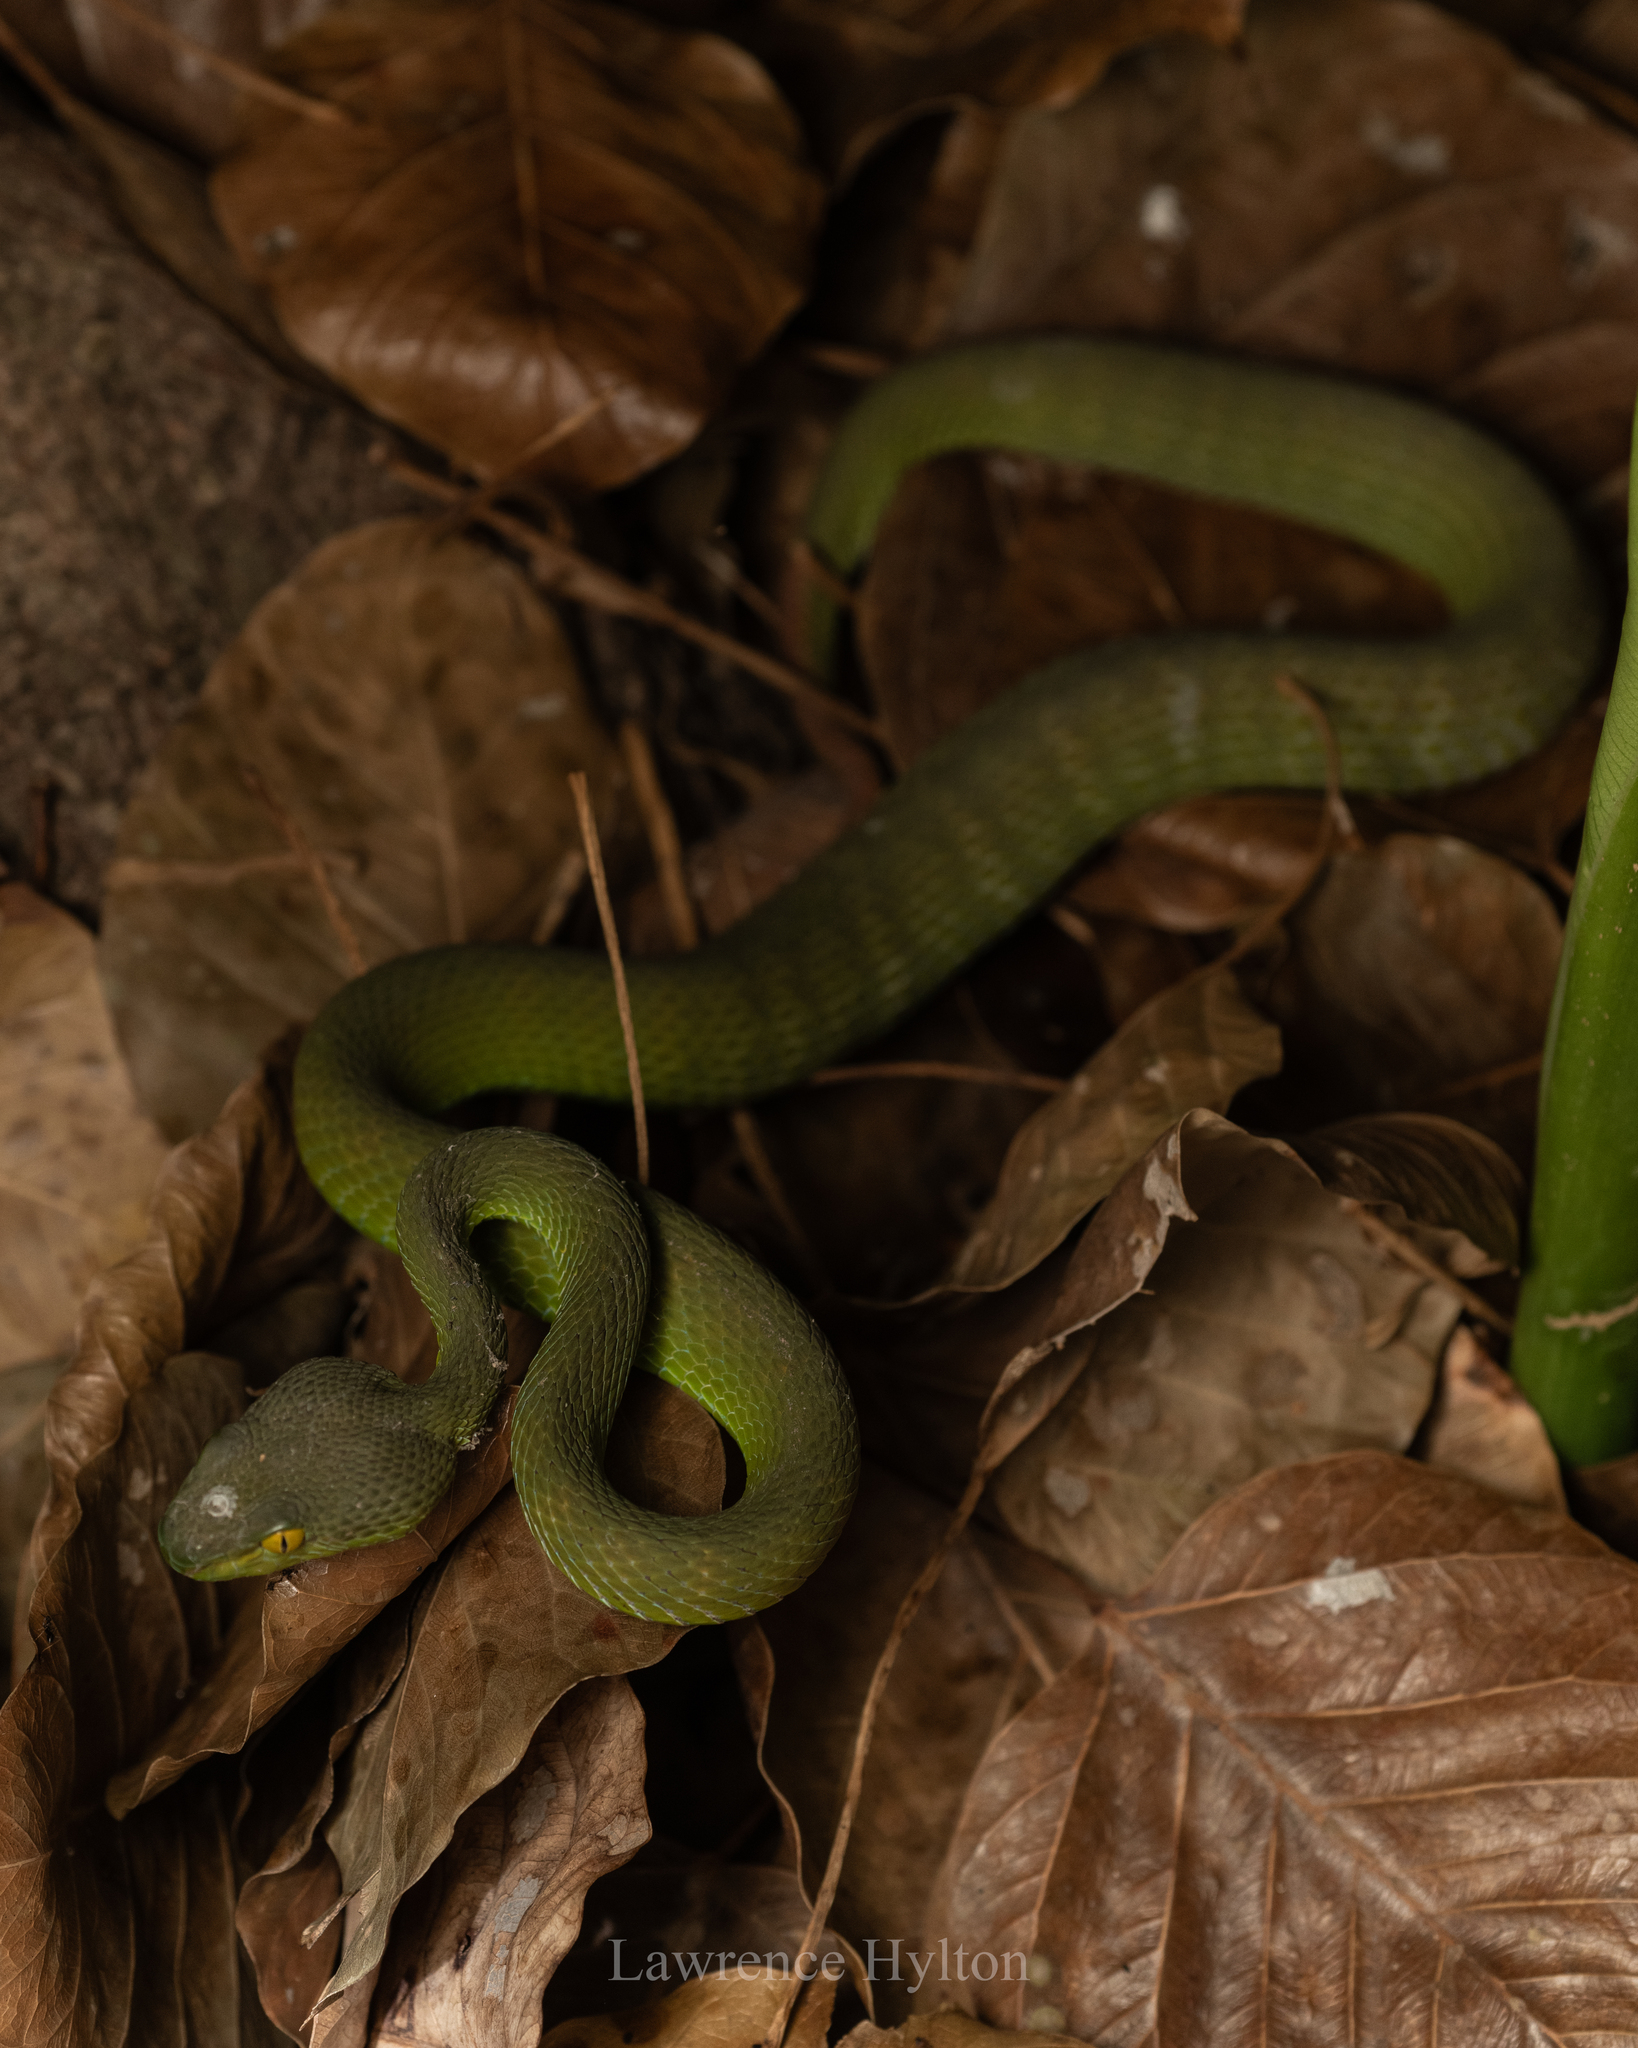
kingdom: Animalia
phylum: Chordata
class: Squamata
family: Viperidae
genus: Trimeresurus
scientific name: Trimeresurus macrops
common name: Kramer's pit viper
